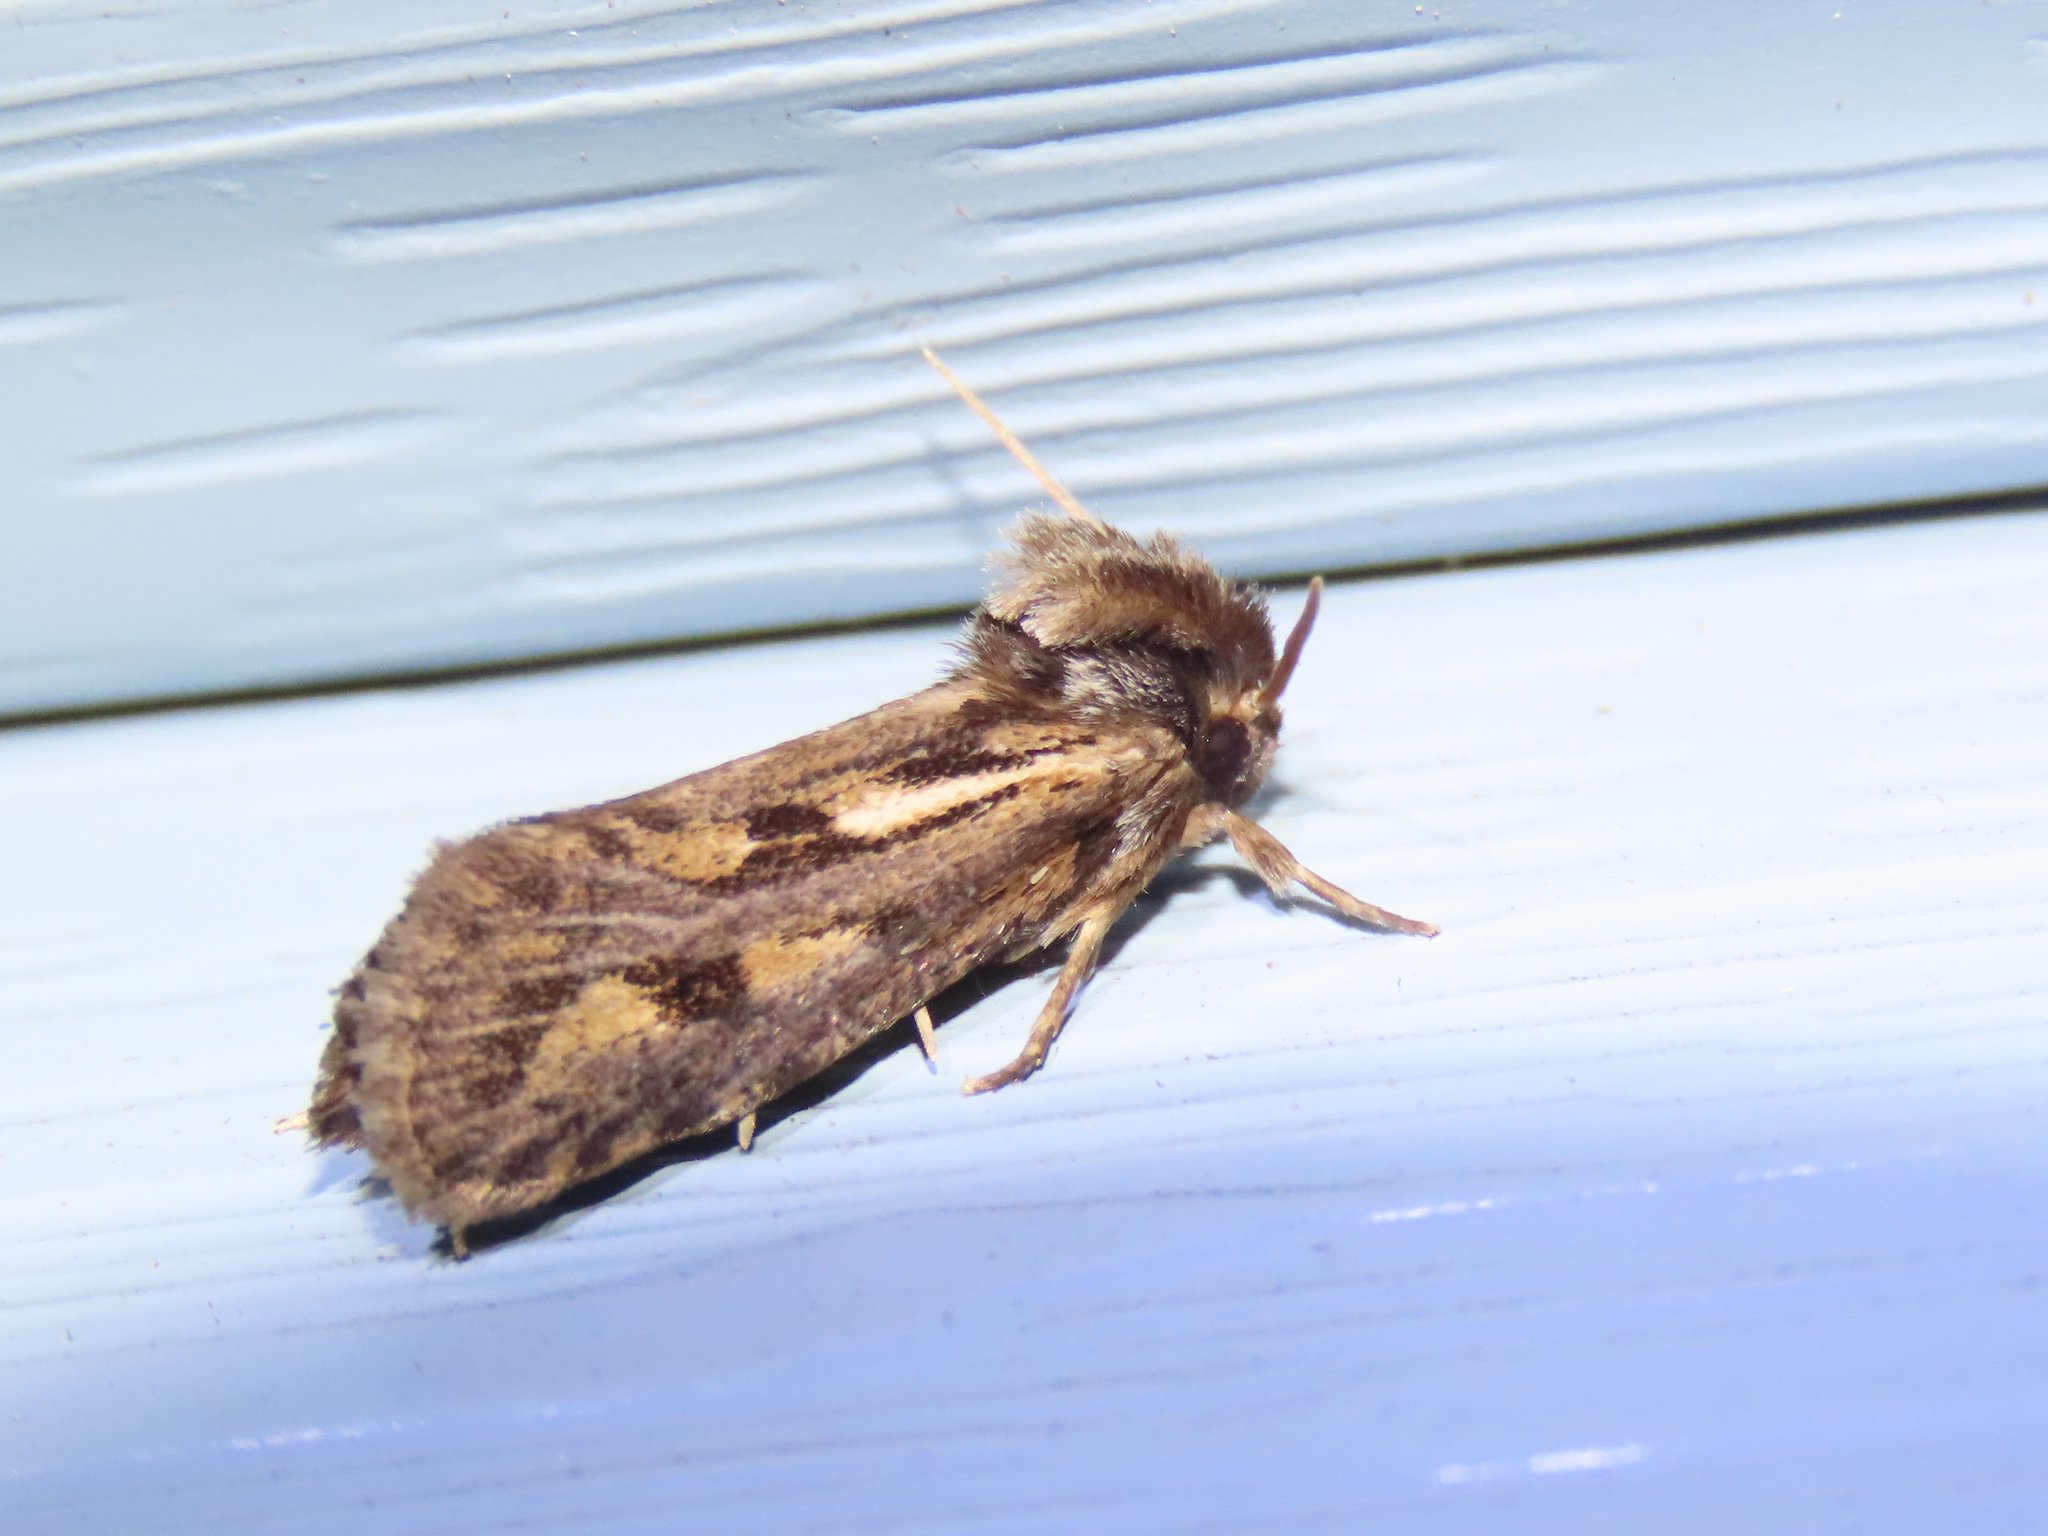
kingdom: Animalia
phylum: Arthropoda
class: Insecta
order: Lepidoptera
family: Tineidae
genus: Acrolophus
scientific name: Acrolophus popeanella
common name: Clemens' grass tubeworm moth
